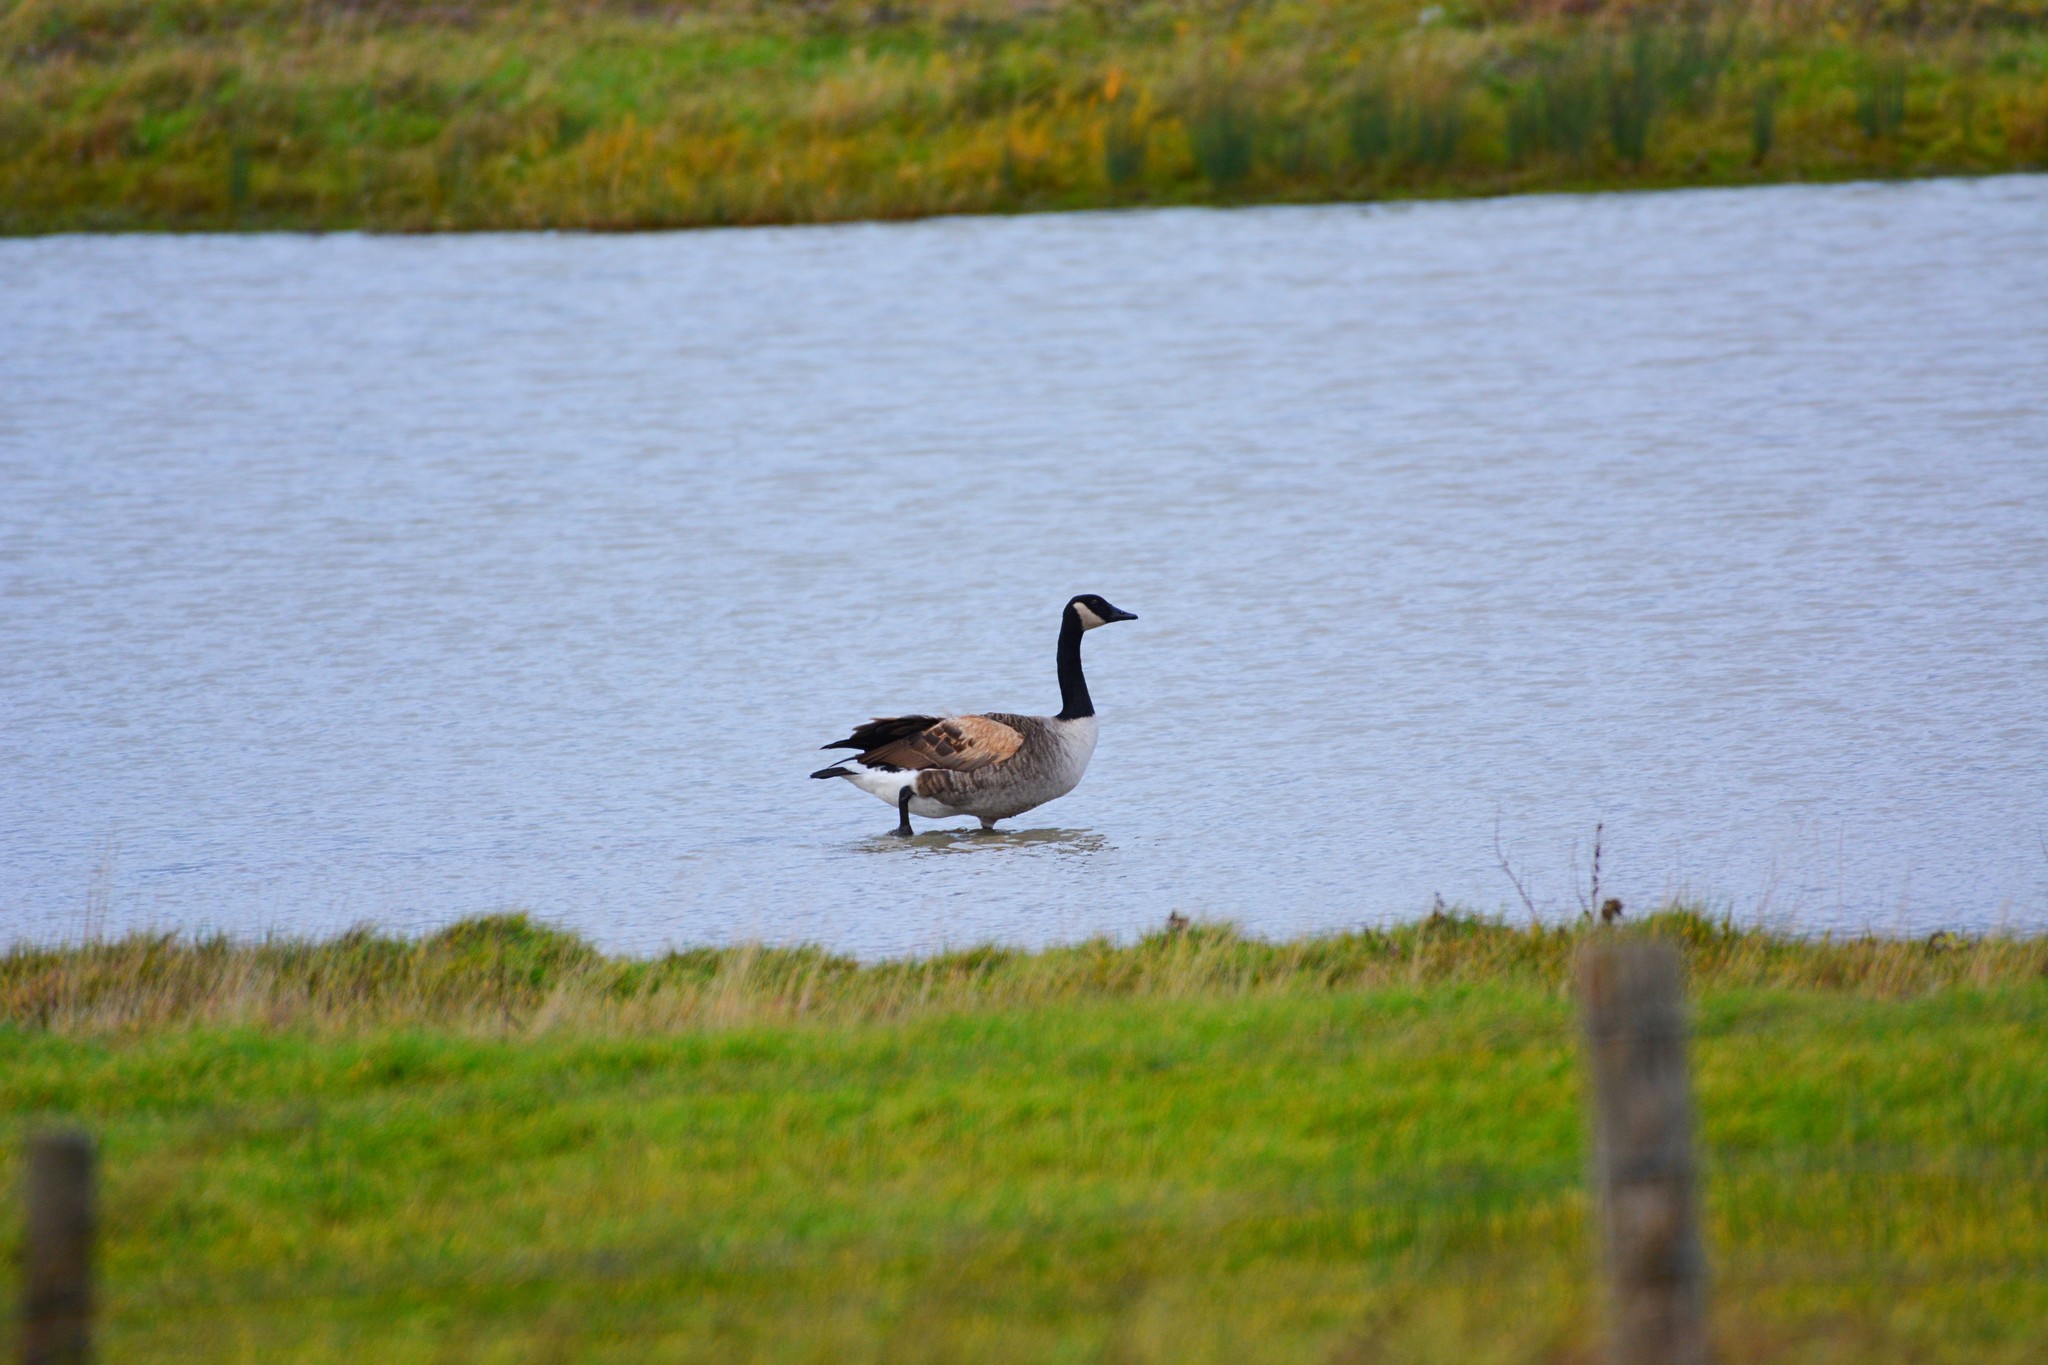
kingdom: Animalia
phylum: Chordata
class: Aves
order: Anseriformes
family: Anatidae
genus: Branta
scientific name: Branta canadensis
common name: Canada goose
